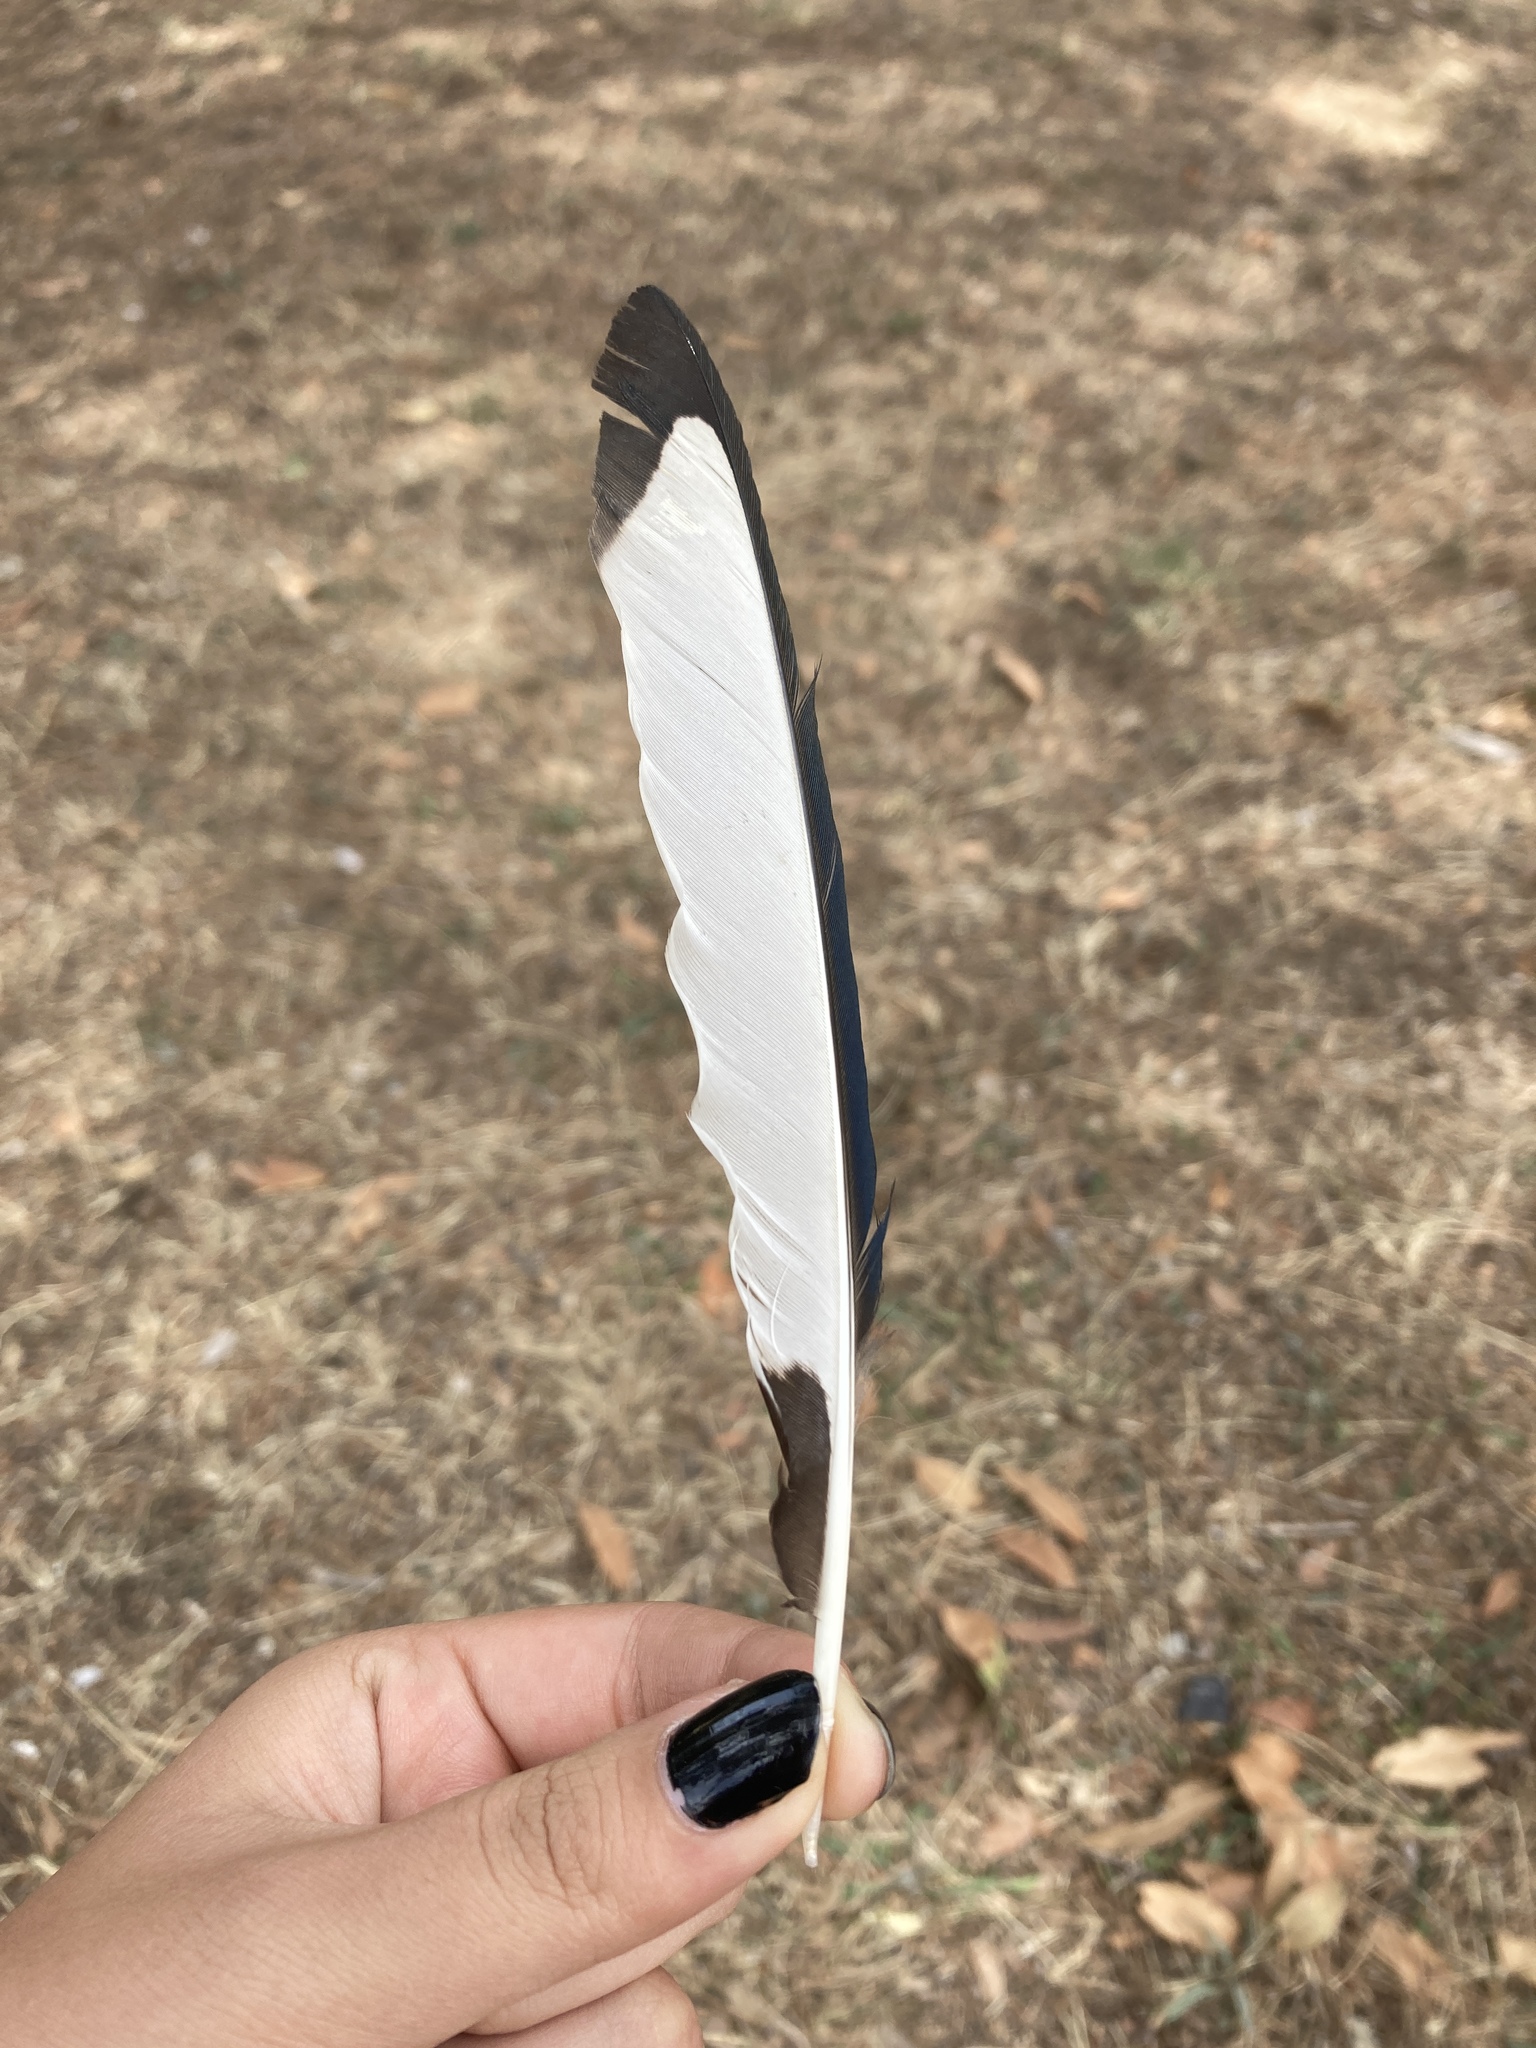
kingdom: Animalia
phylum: Chordata
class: Aves
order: Passeriformes
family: Corvidae
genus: Pica
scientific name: Pica pica
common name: Eurasian magpie
